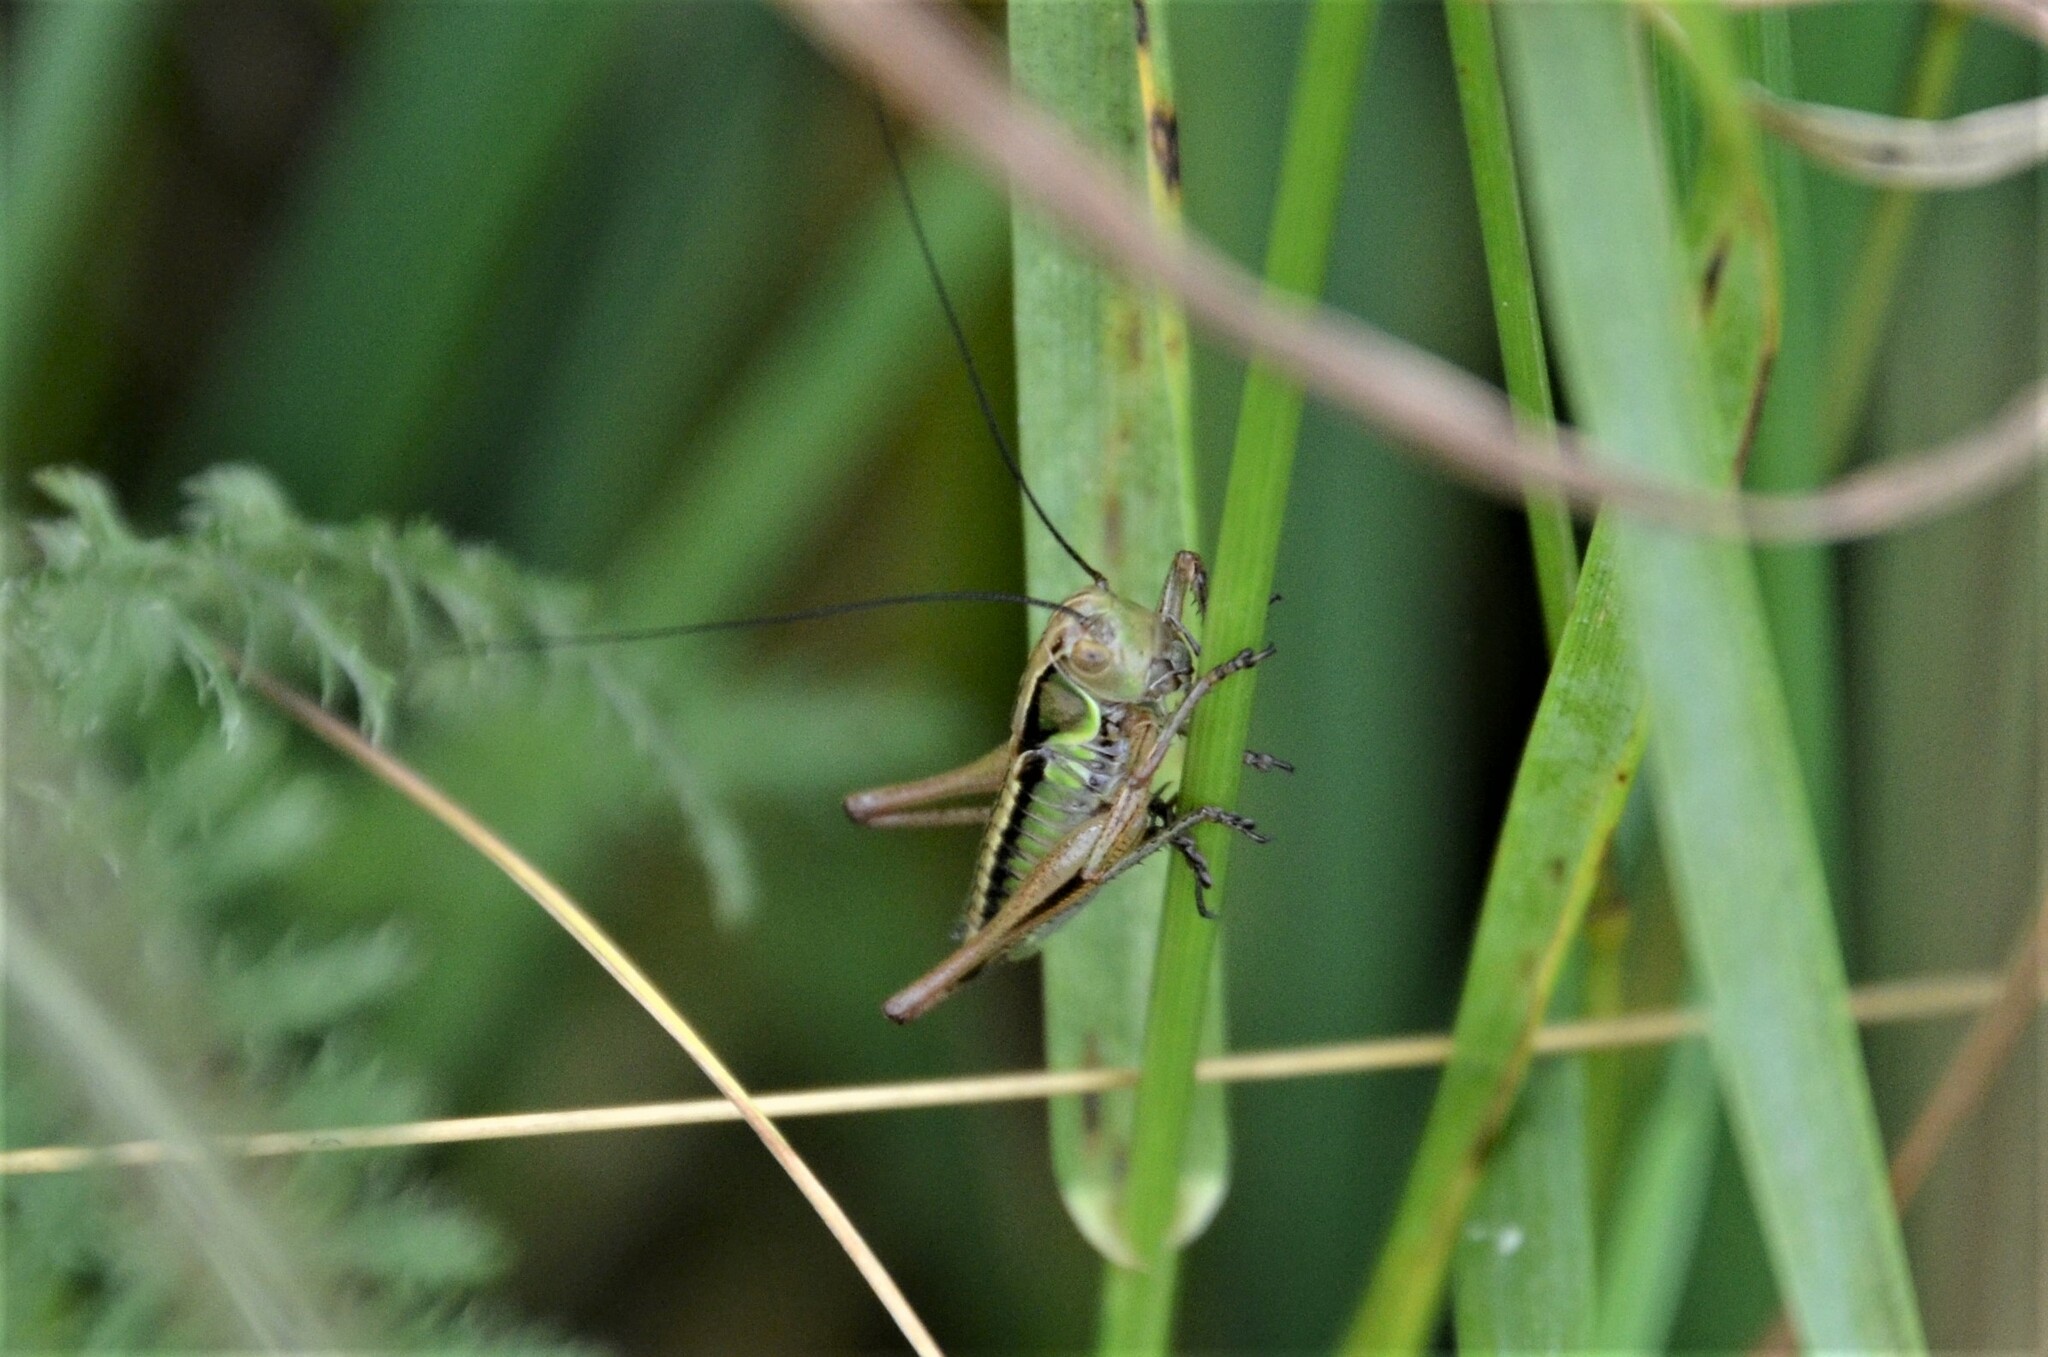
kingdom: Animalia
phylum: Arthropoda
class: Insecta
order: Orthoptera
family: Tettigoniidae
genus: Roeseliana
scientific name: Roeseliana roeselii
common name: Roesel's bush cricket
